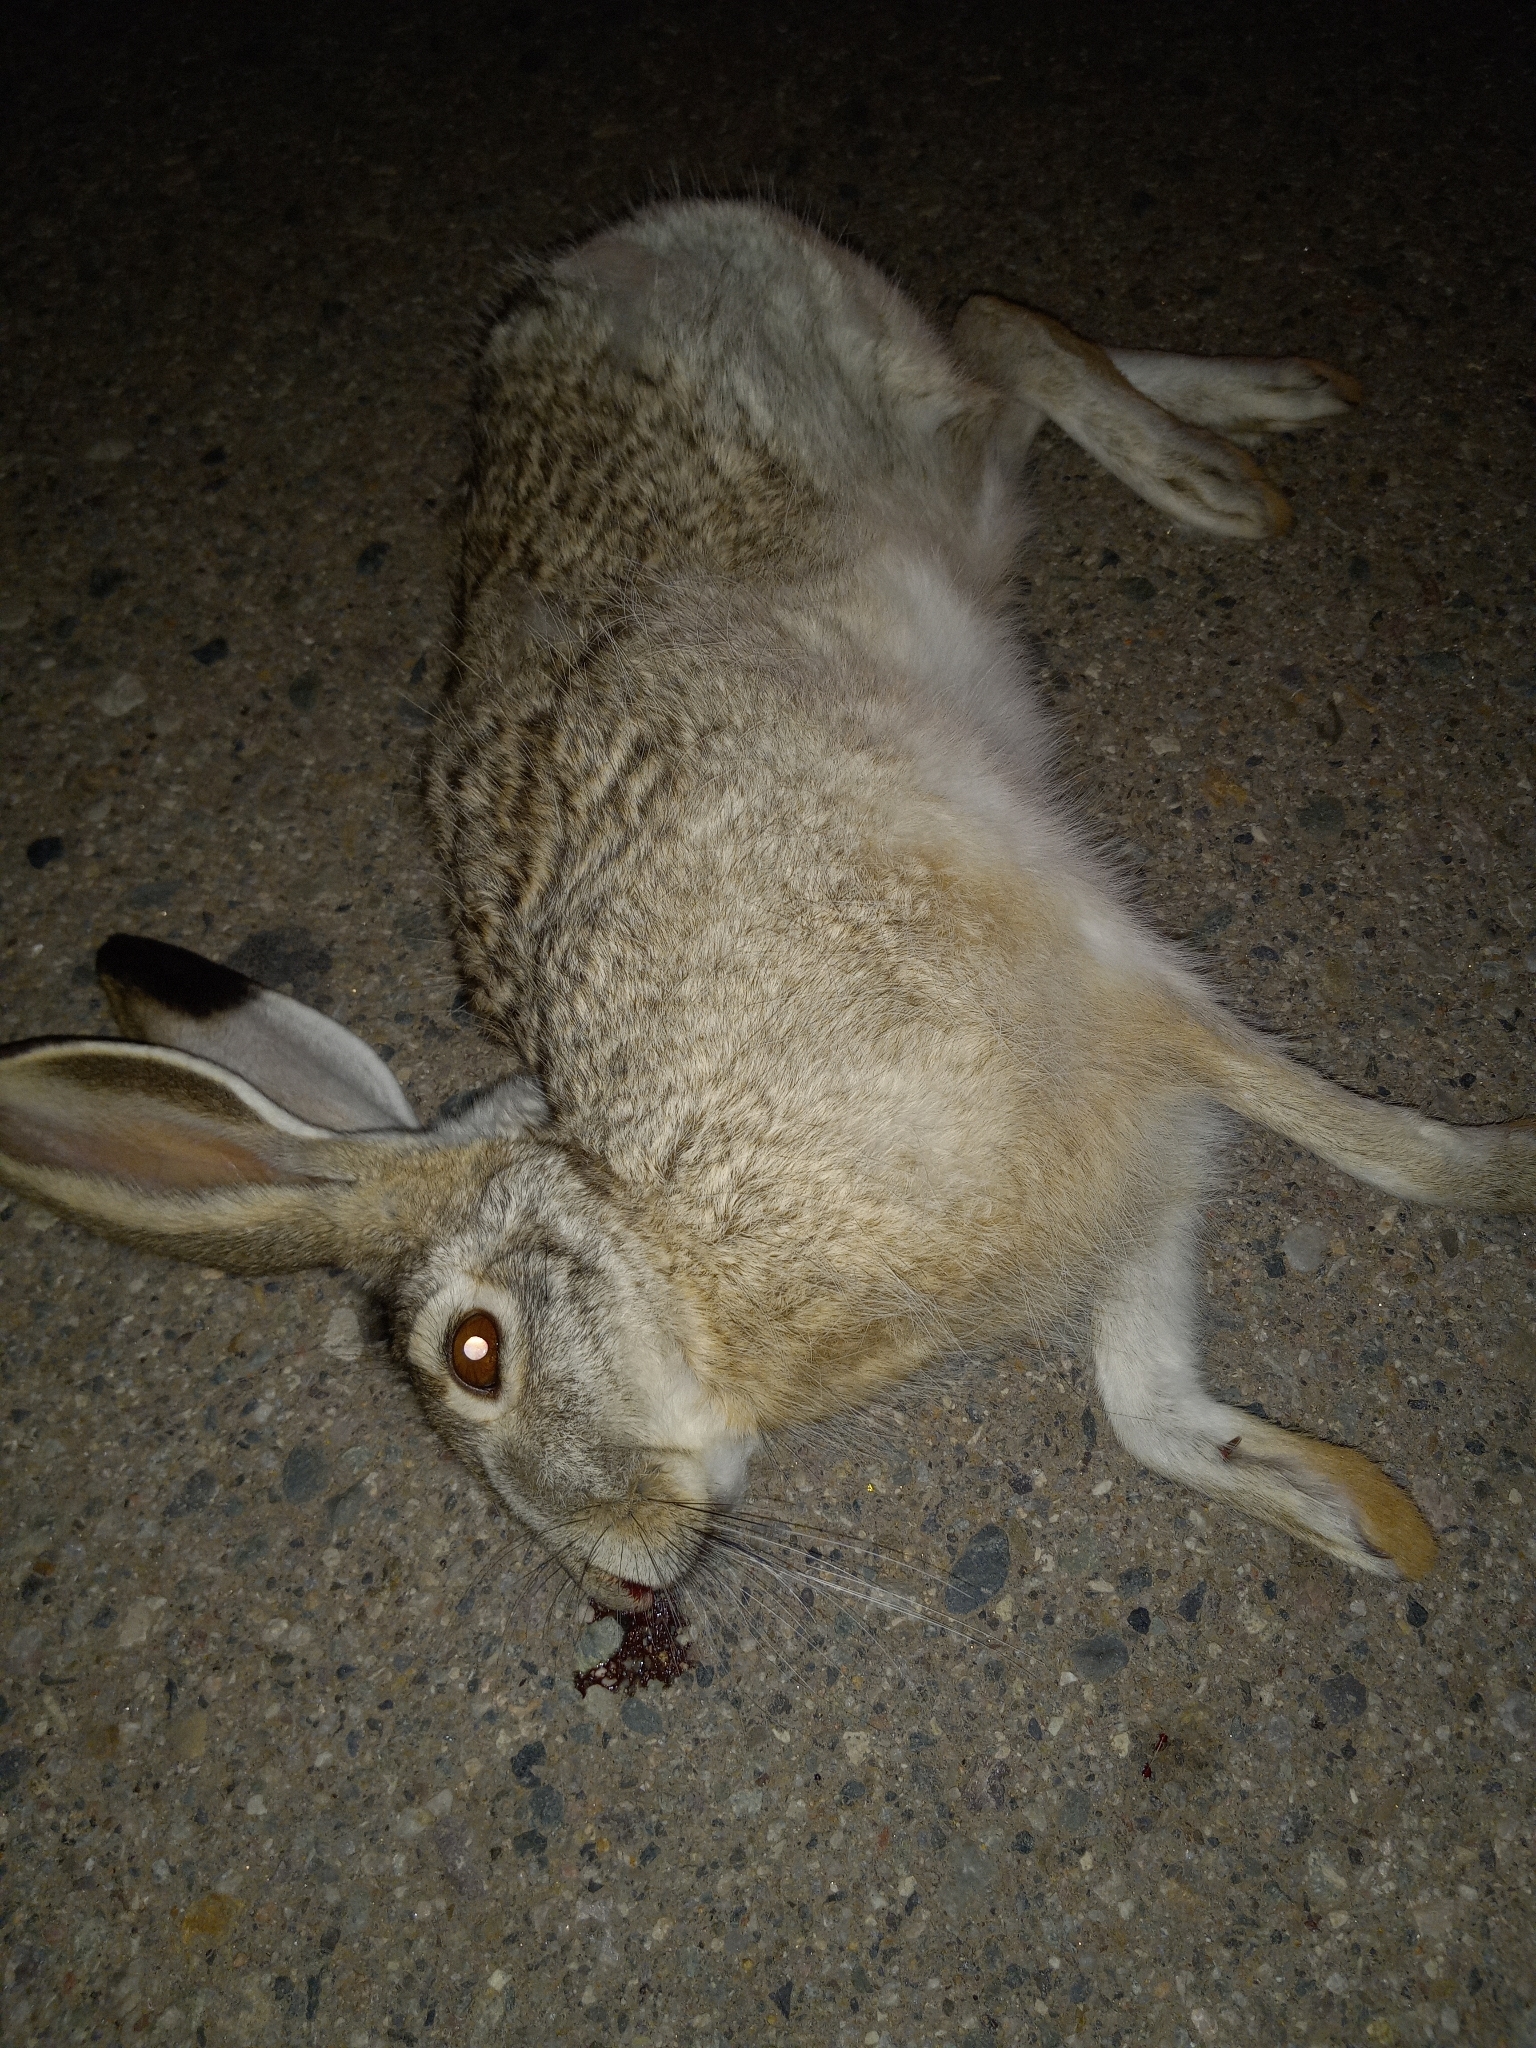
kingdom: Animalia
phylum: Chordata
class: Mammalia
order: Lagomorpha
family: Leporidae
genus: Lepus
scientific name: Lepus californicus
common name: Black-tailed jackrabbit
